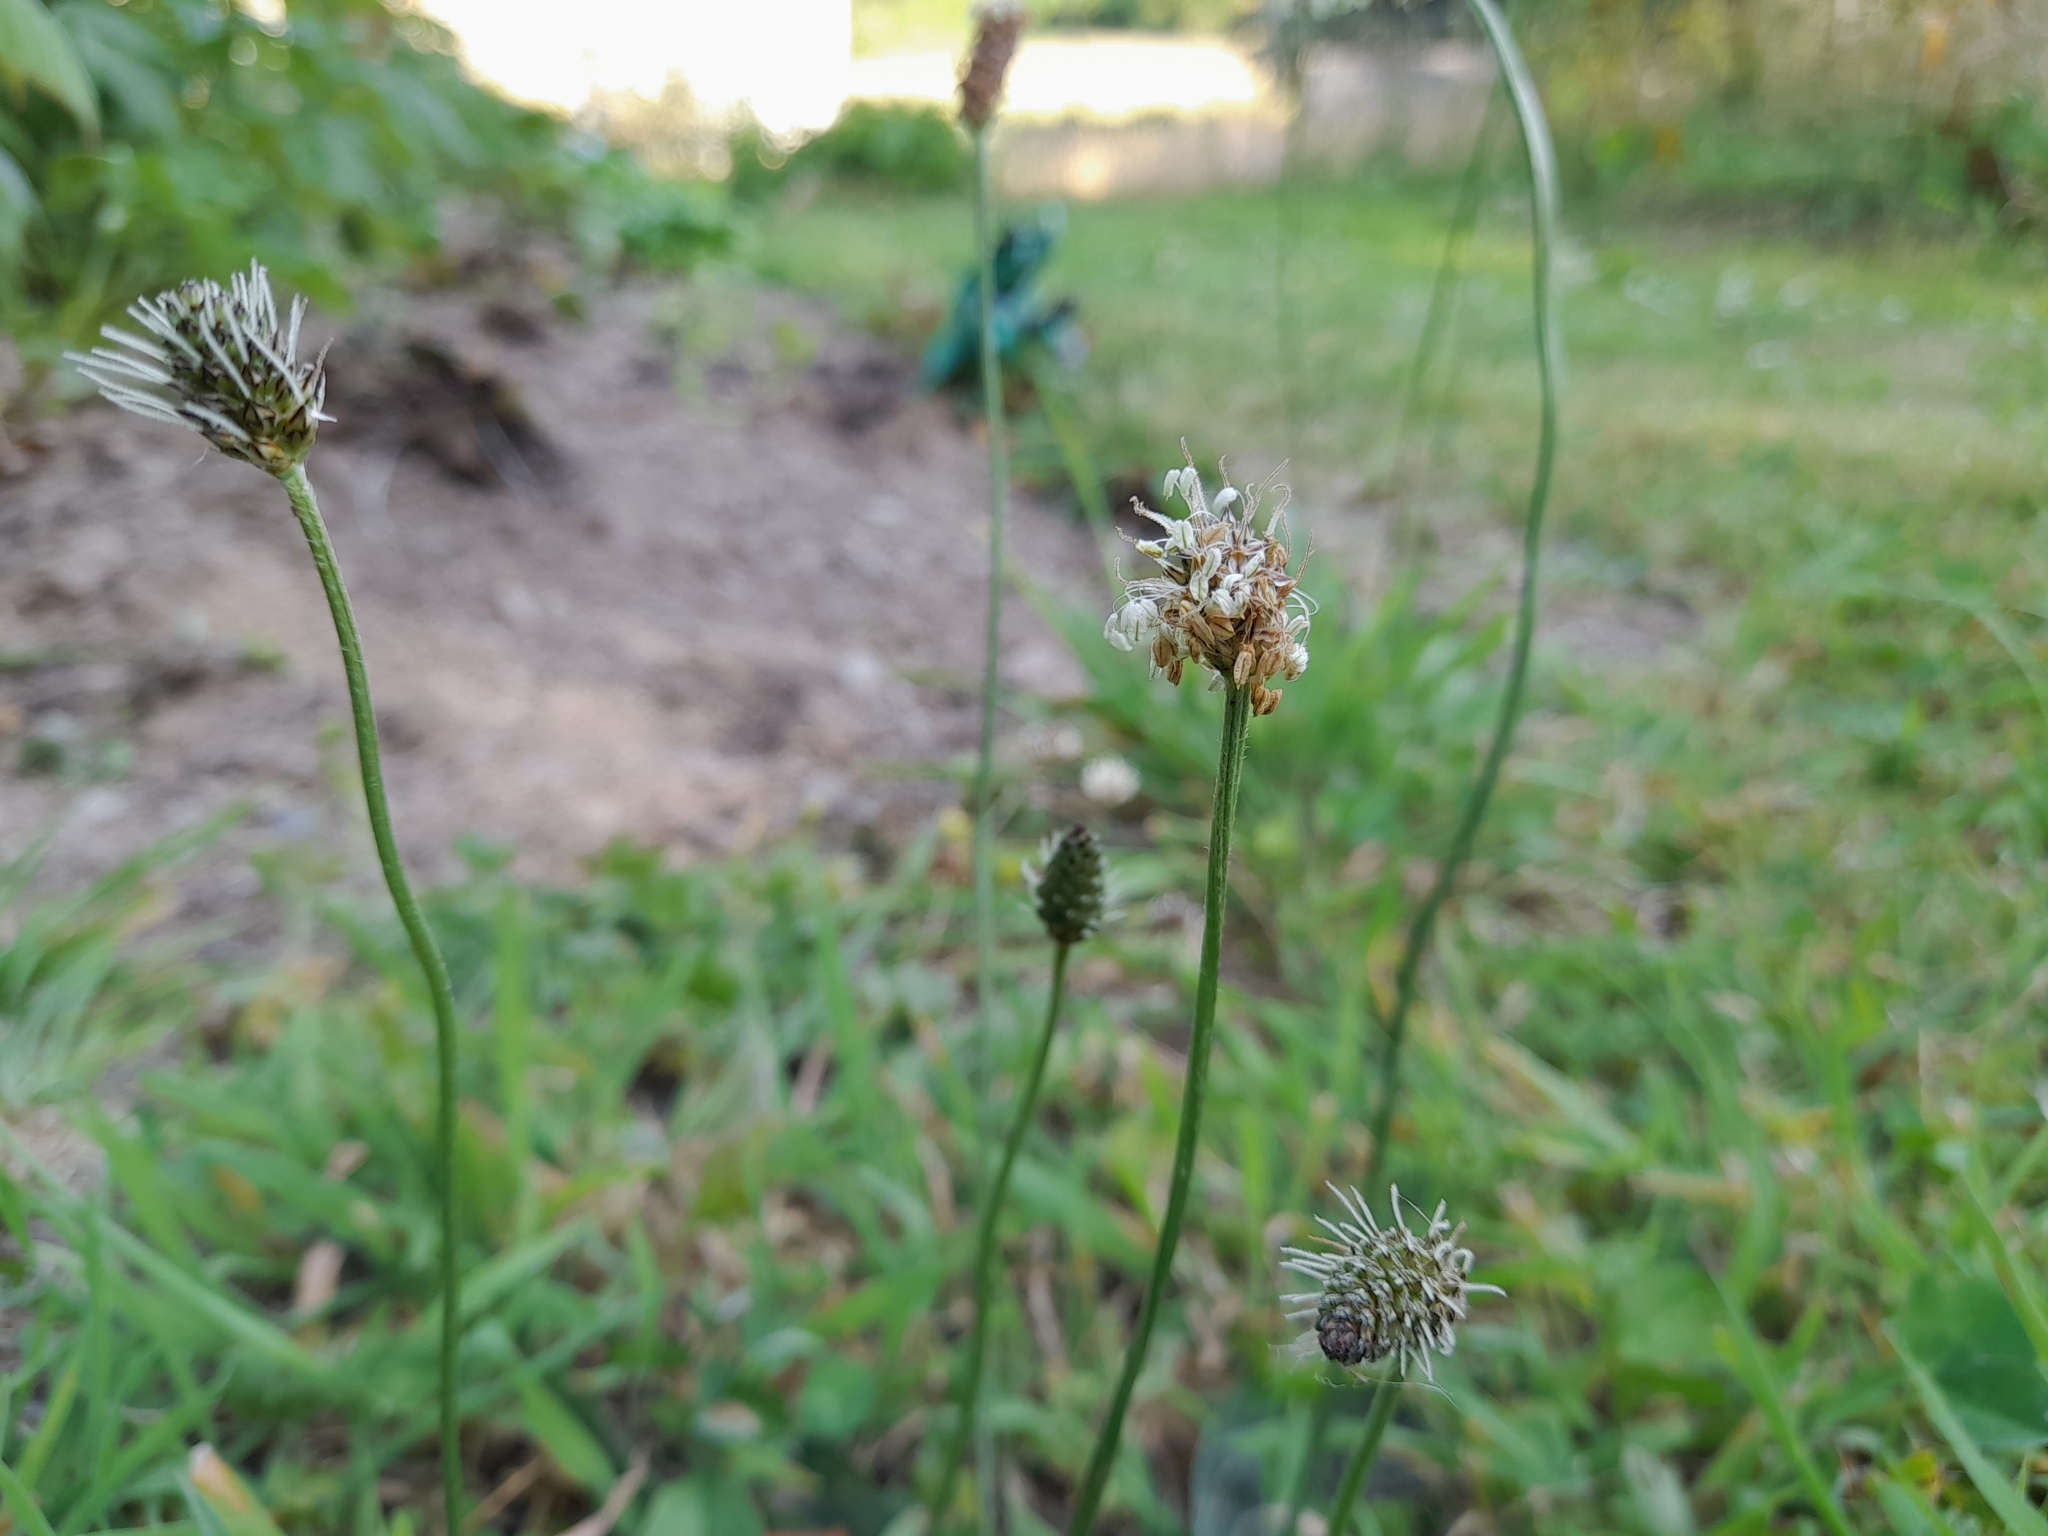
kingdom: Plantae
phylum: Tracheophyta
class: Magnoliopsida
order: Lamiales
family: Plantaginaceae
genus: Plantago
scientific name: Plantago lanceolata
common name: Ribwort plantain
